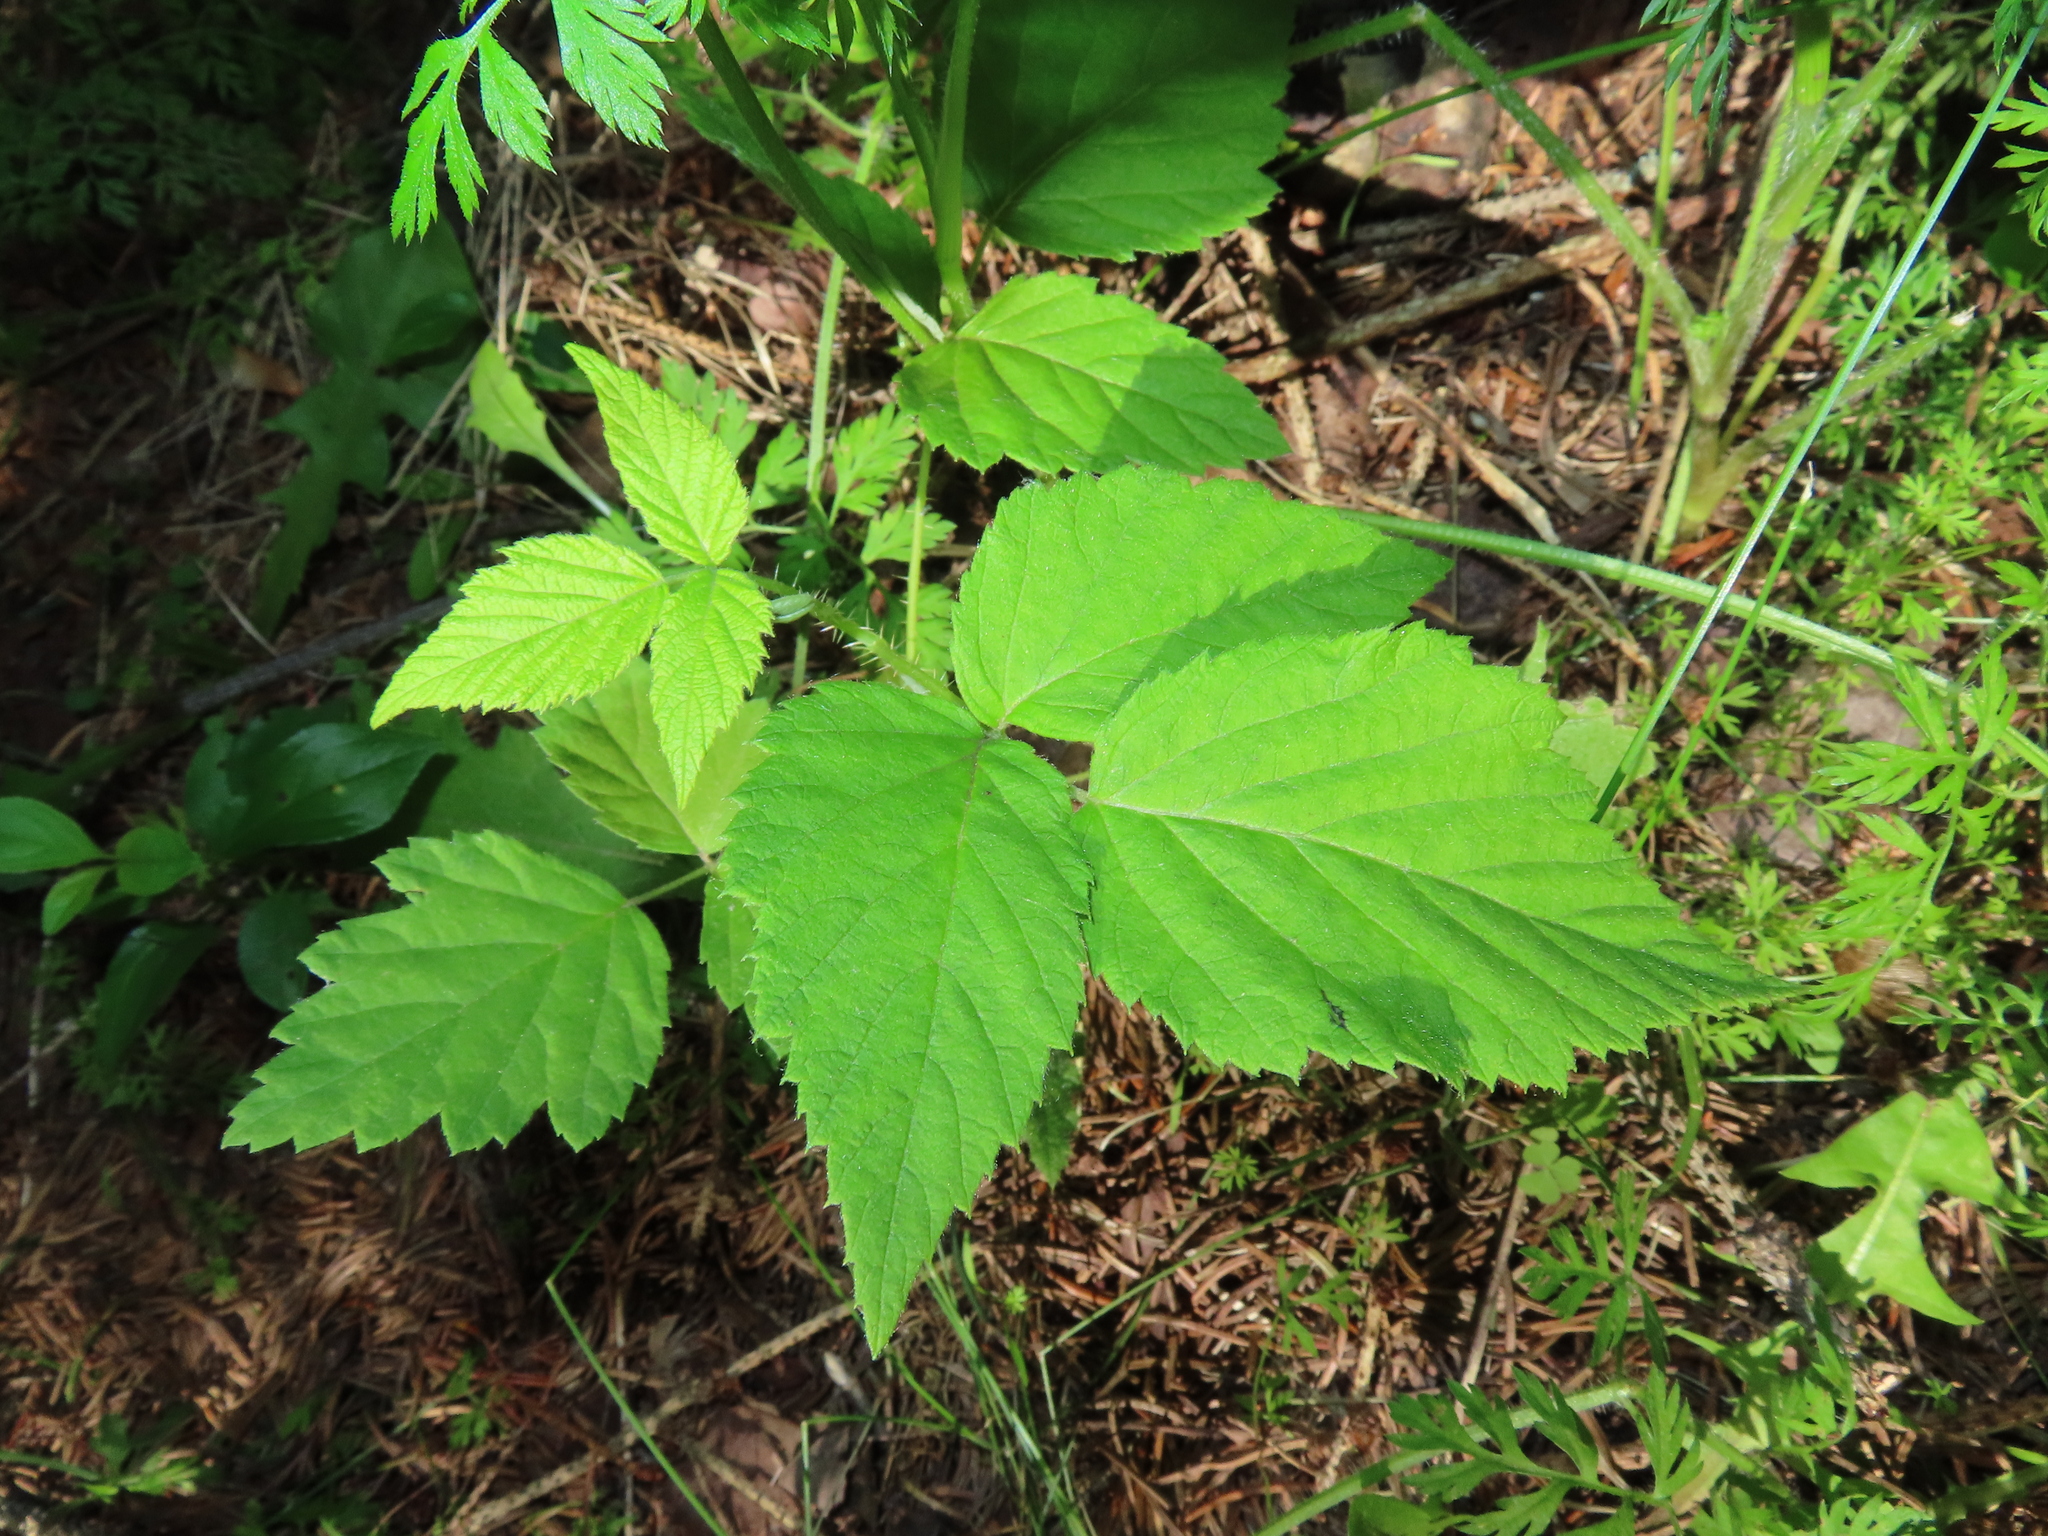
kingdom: Plantae
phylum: Tracheophyta
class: Magnoliopsida
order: Rosales
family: Rosaceae
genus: Rubus
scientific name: Rubus occidentalis
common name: Black raspberry
